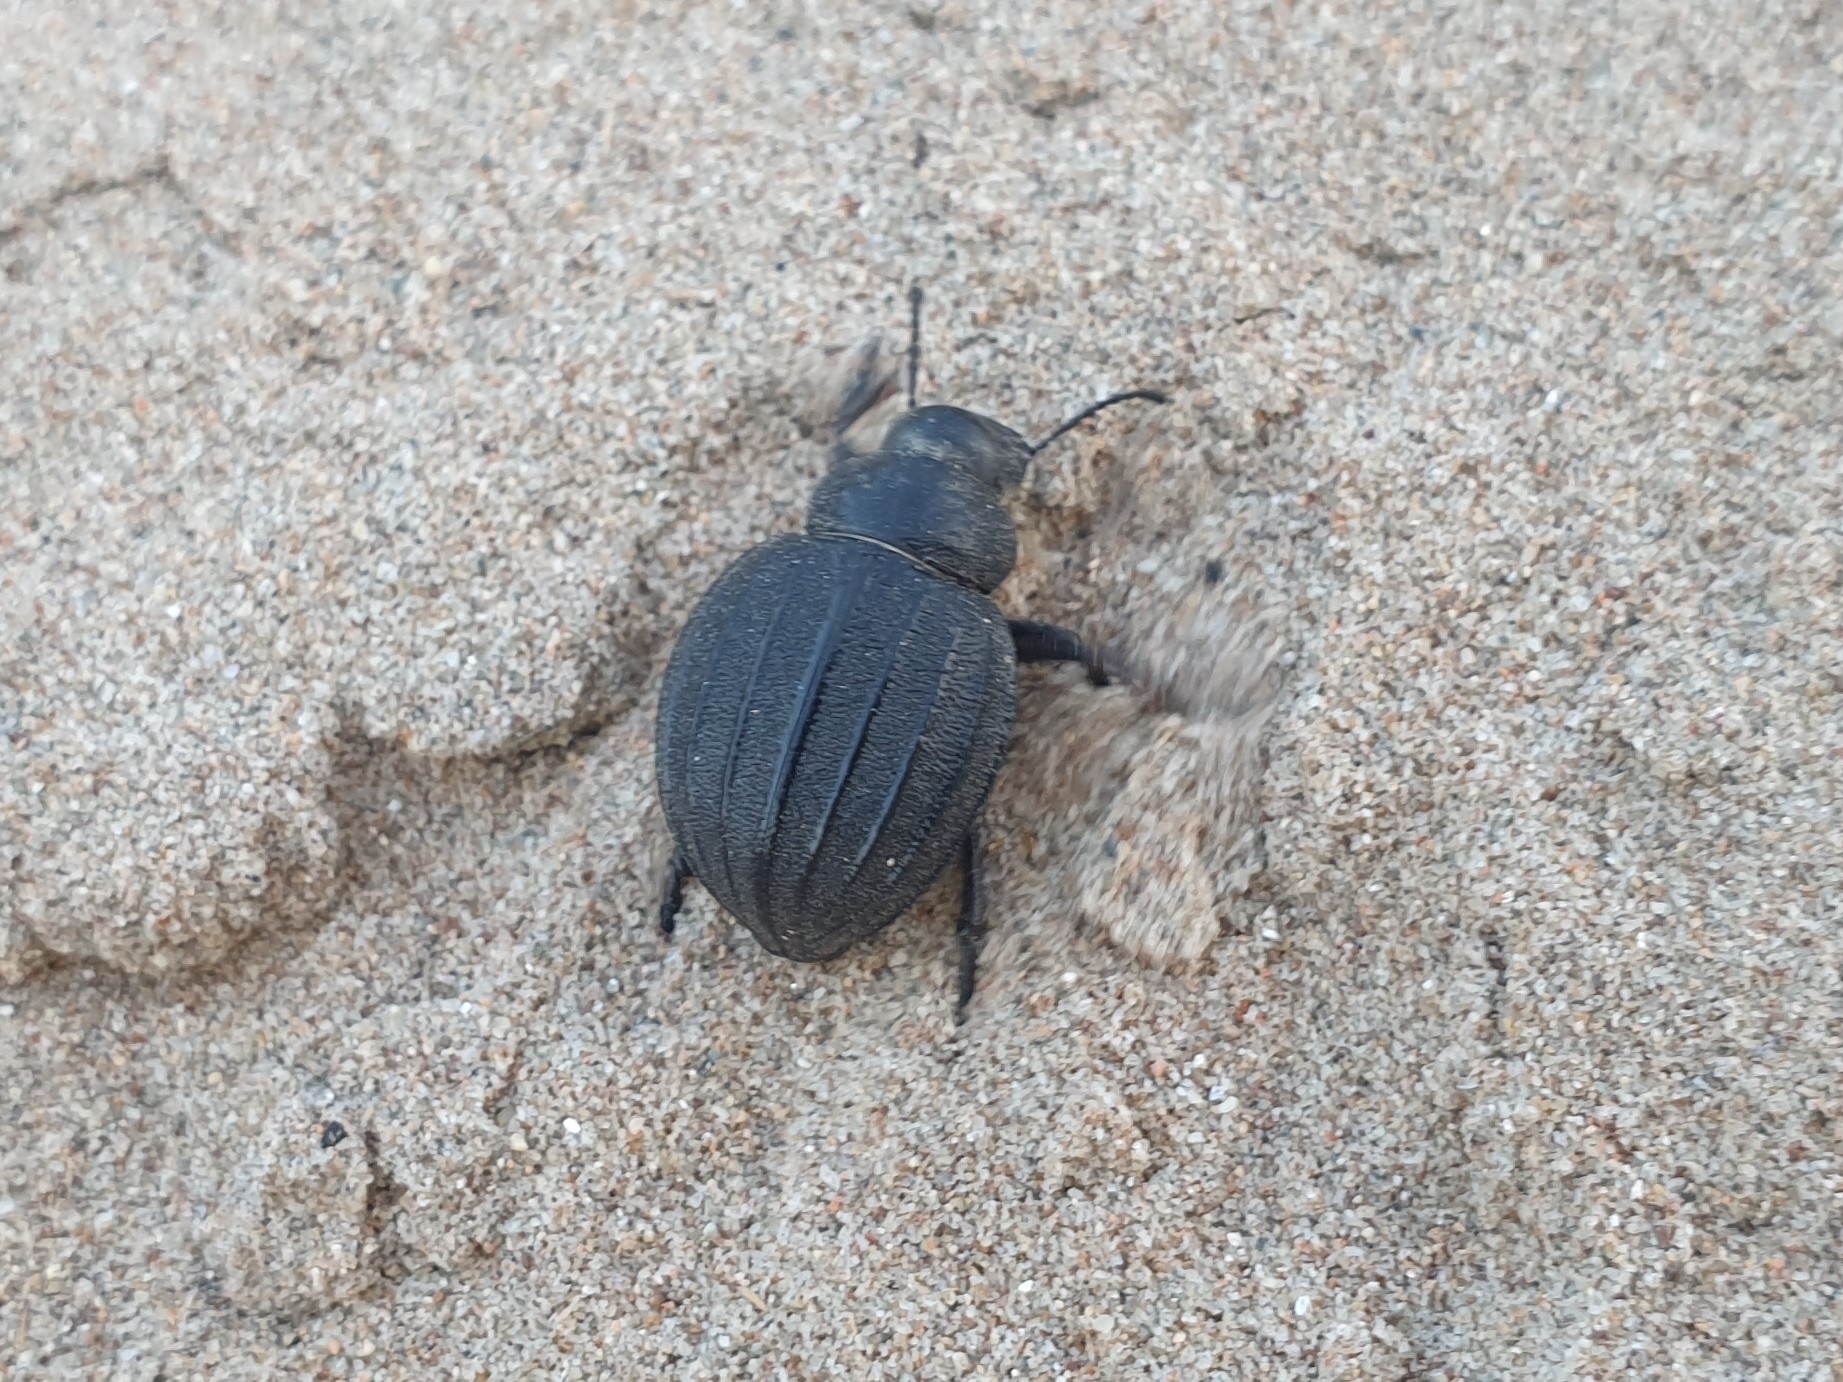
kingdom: Animalia
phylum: Arthropoda
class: Insecta
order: Coleoptera
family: Tenebrionidae
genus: Pimelia
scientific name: Pimelia muricata
